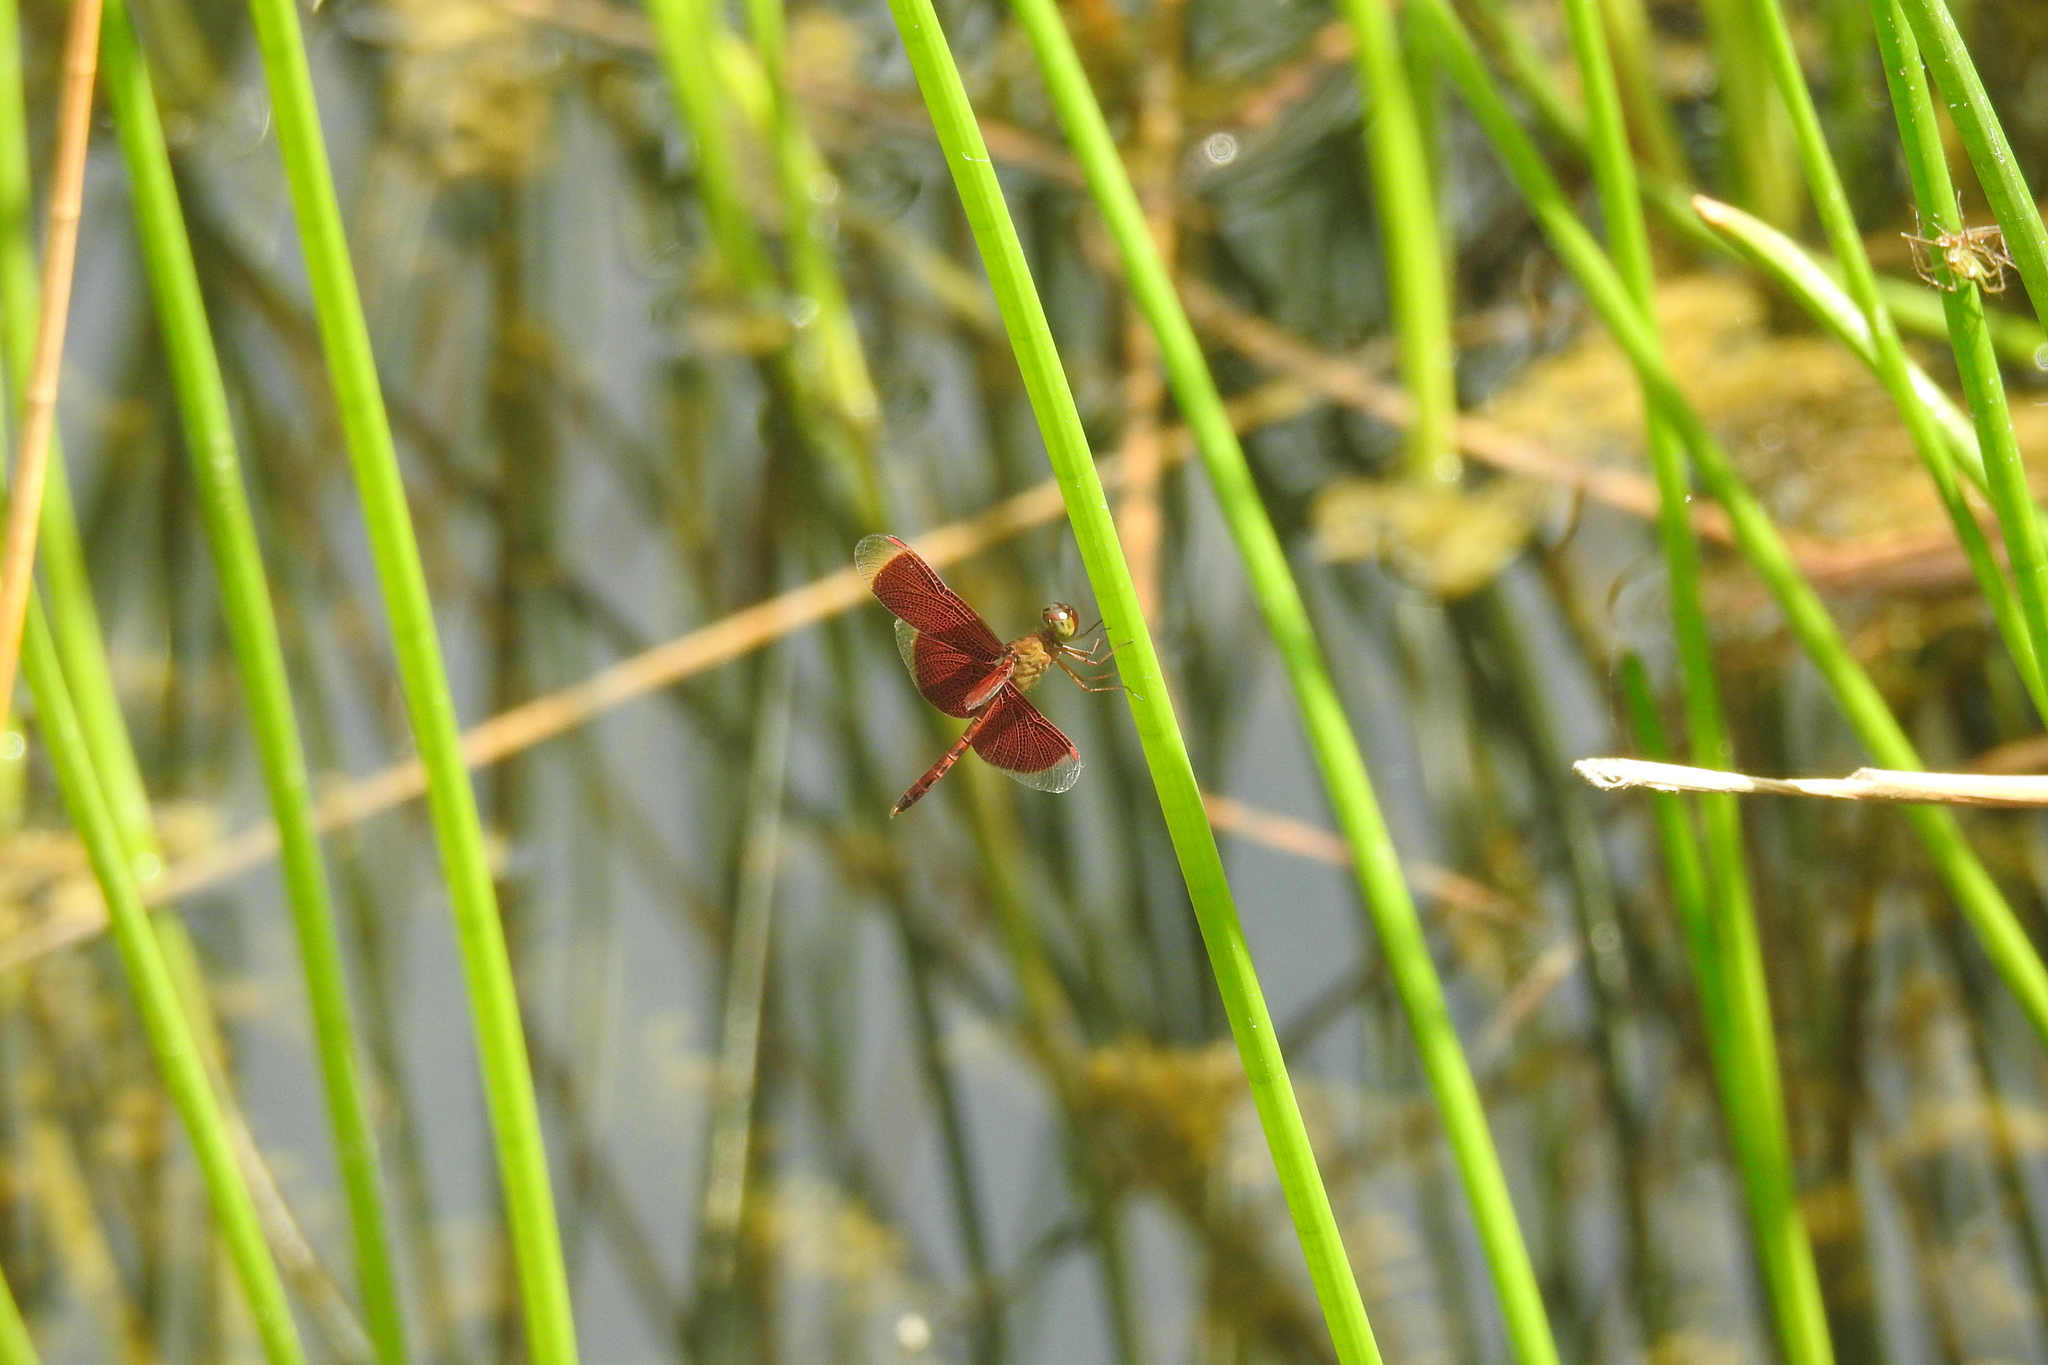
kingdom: Animalia
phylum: Arthropoda
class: Insecta
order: Odonata
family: Libellulidae
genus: Neurothemis
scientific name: Neurothemis fluctuans
